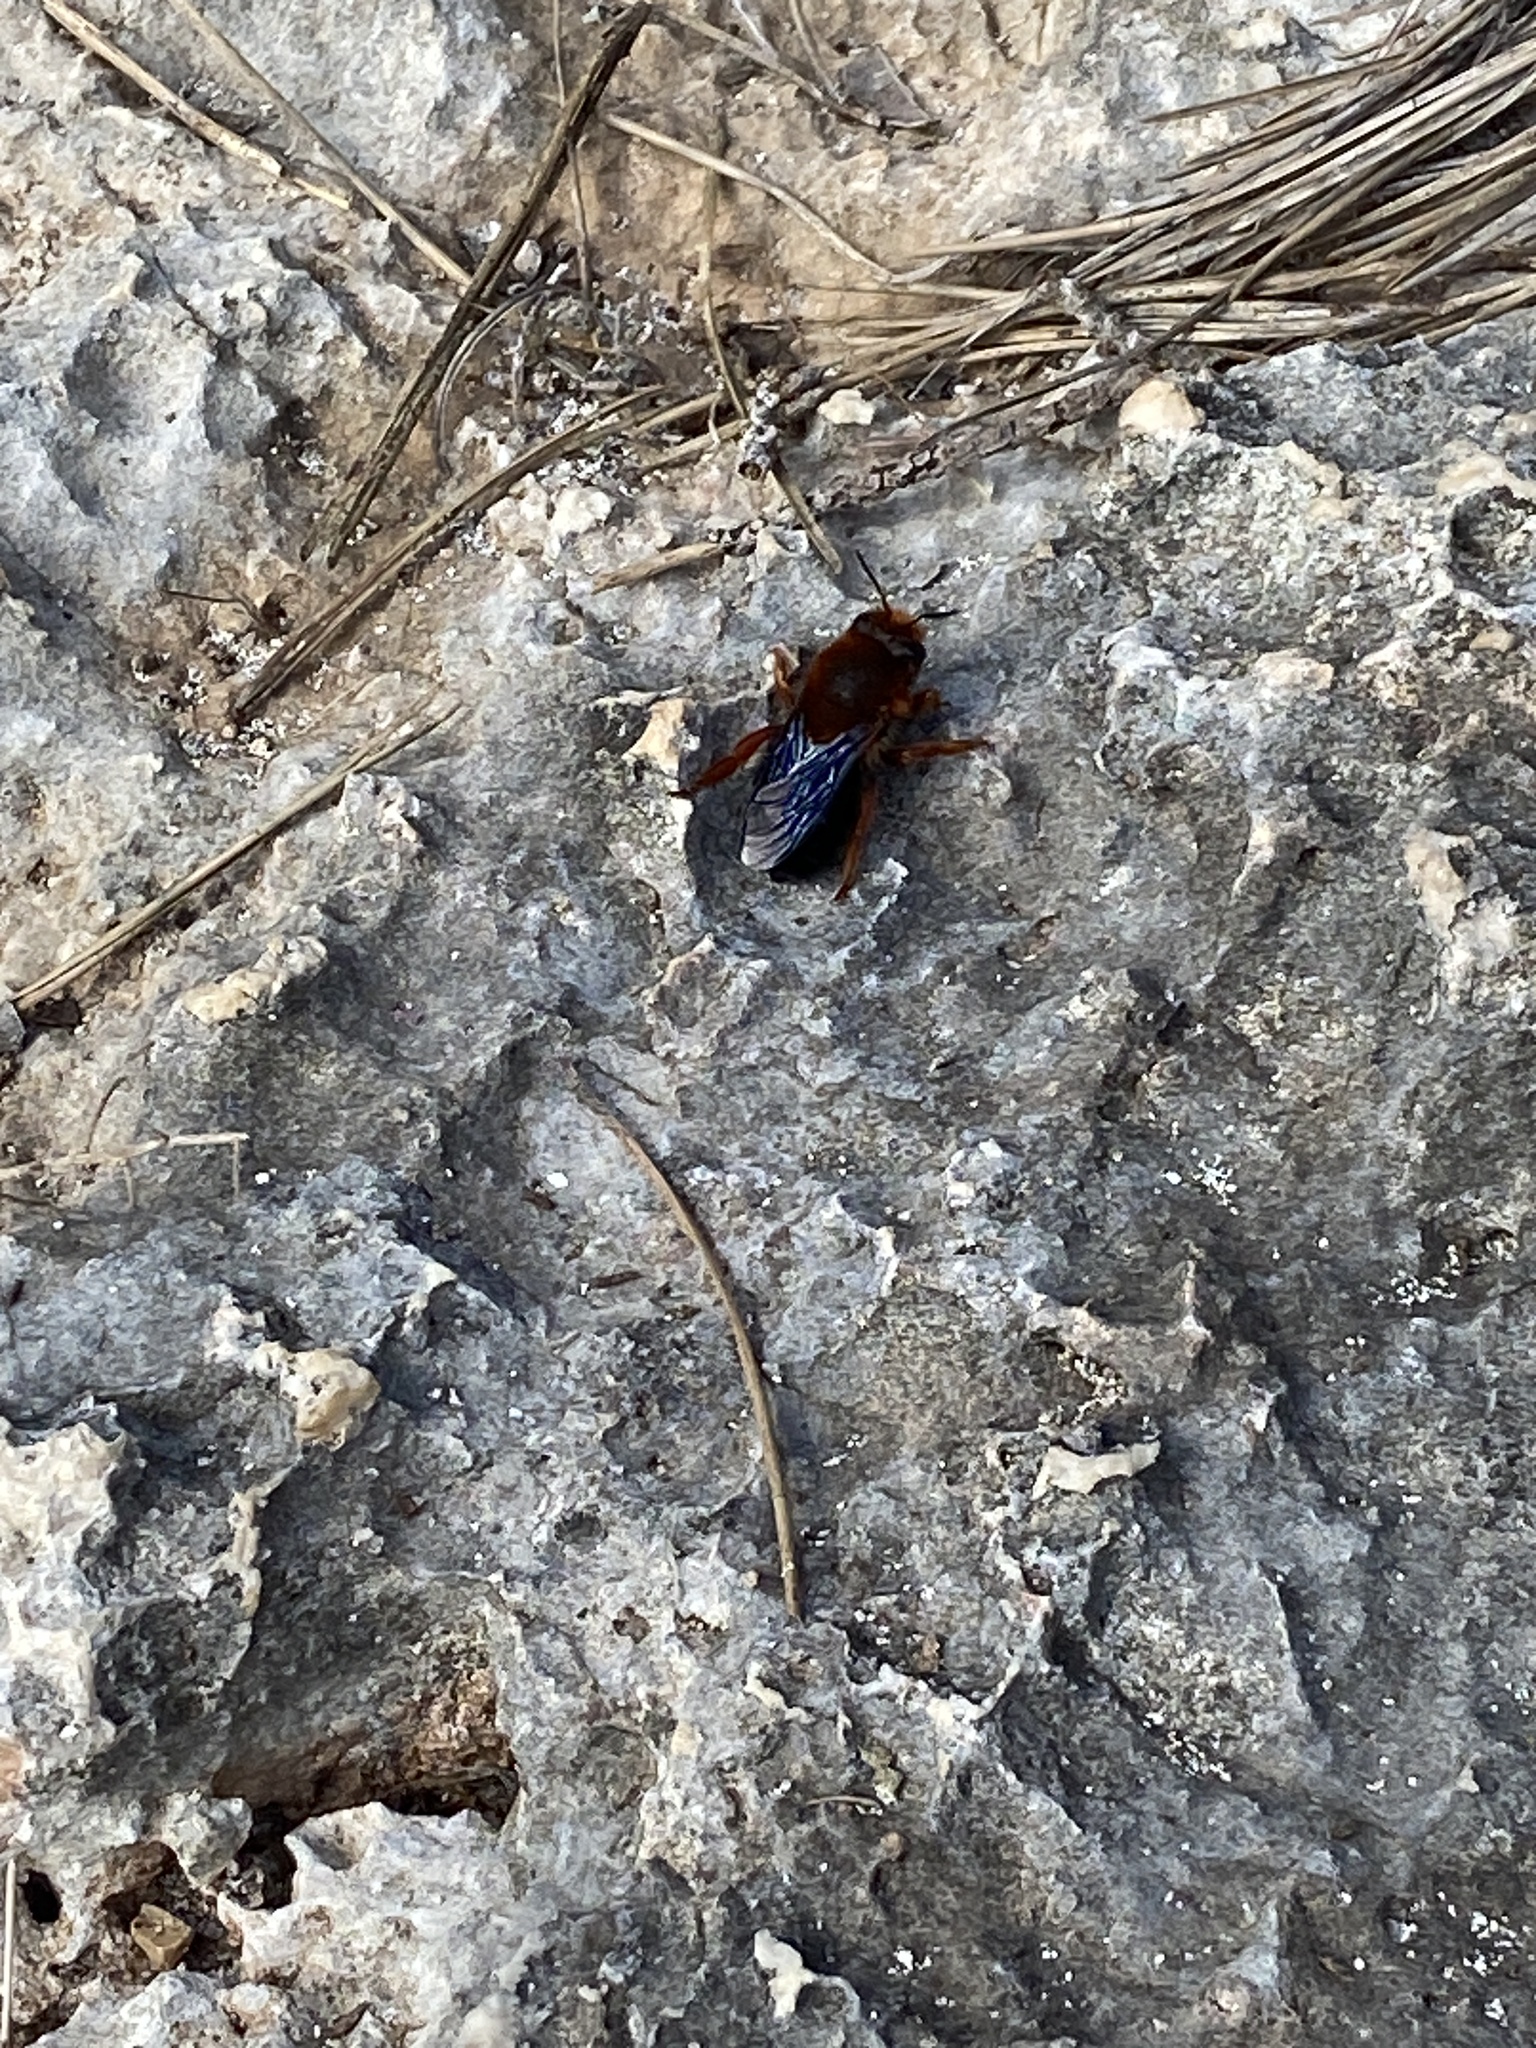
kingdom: Animalia
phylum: Arthropoda
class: Insecta
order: Hymenoptera
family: Megachilidae
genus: Megachile
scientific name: Megachile sicula
